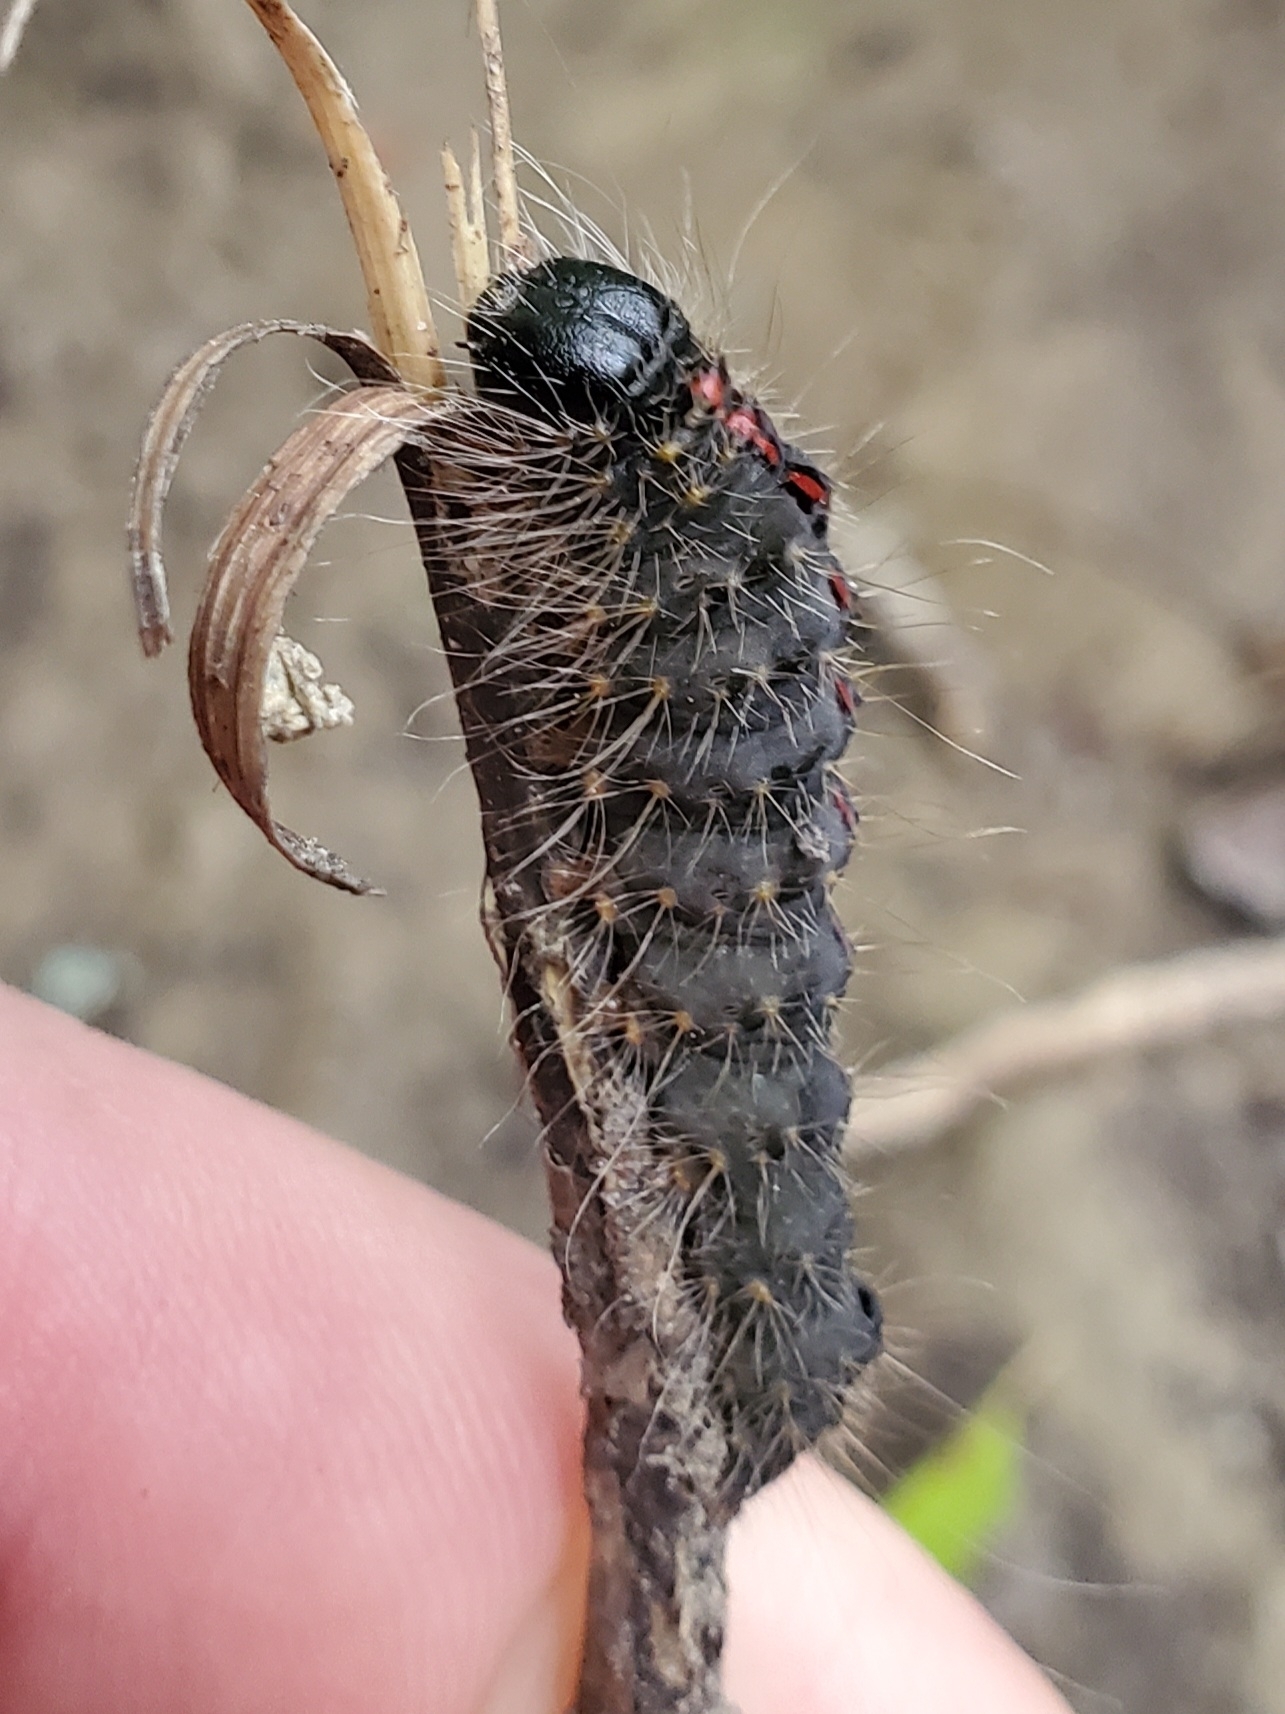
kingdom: Animalia
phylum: Arthropoda
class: Insecta
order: Lepidoptera
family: Noctuidae
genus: Acronicta
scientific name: Acronicta hasta
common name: Cherry dagger
